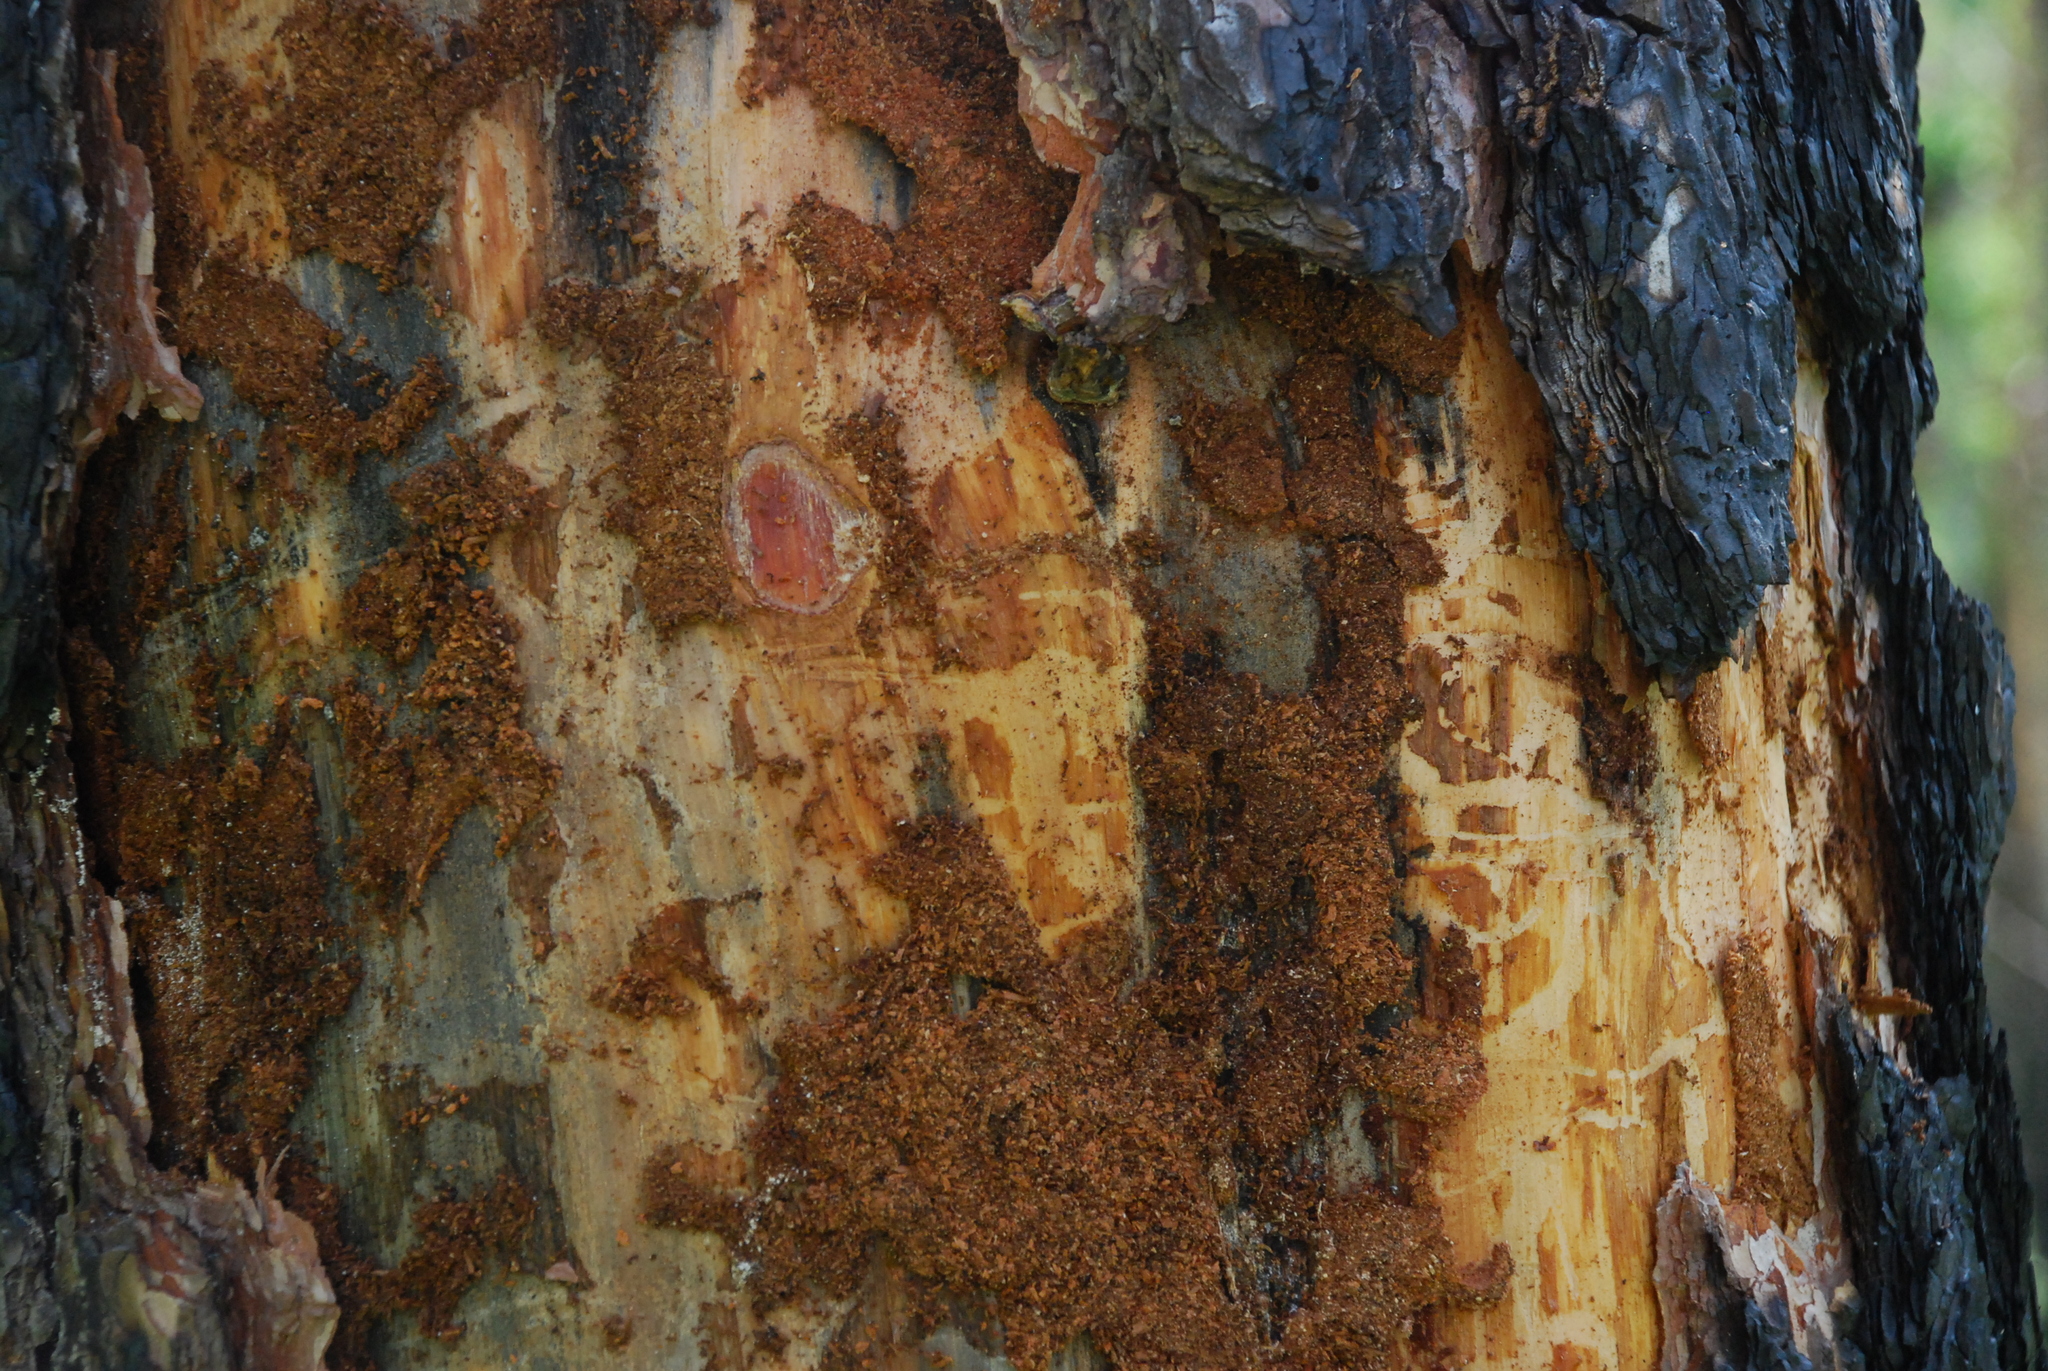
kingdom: Animalia
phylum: Chordata
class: Aves
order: Piciformes
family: Picidae
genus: Dryocopus
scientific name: Dryocopus martius
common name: Black woodpecker
